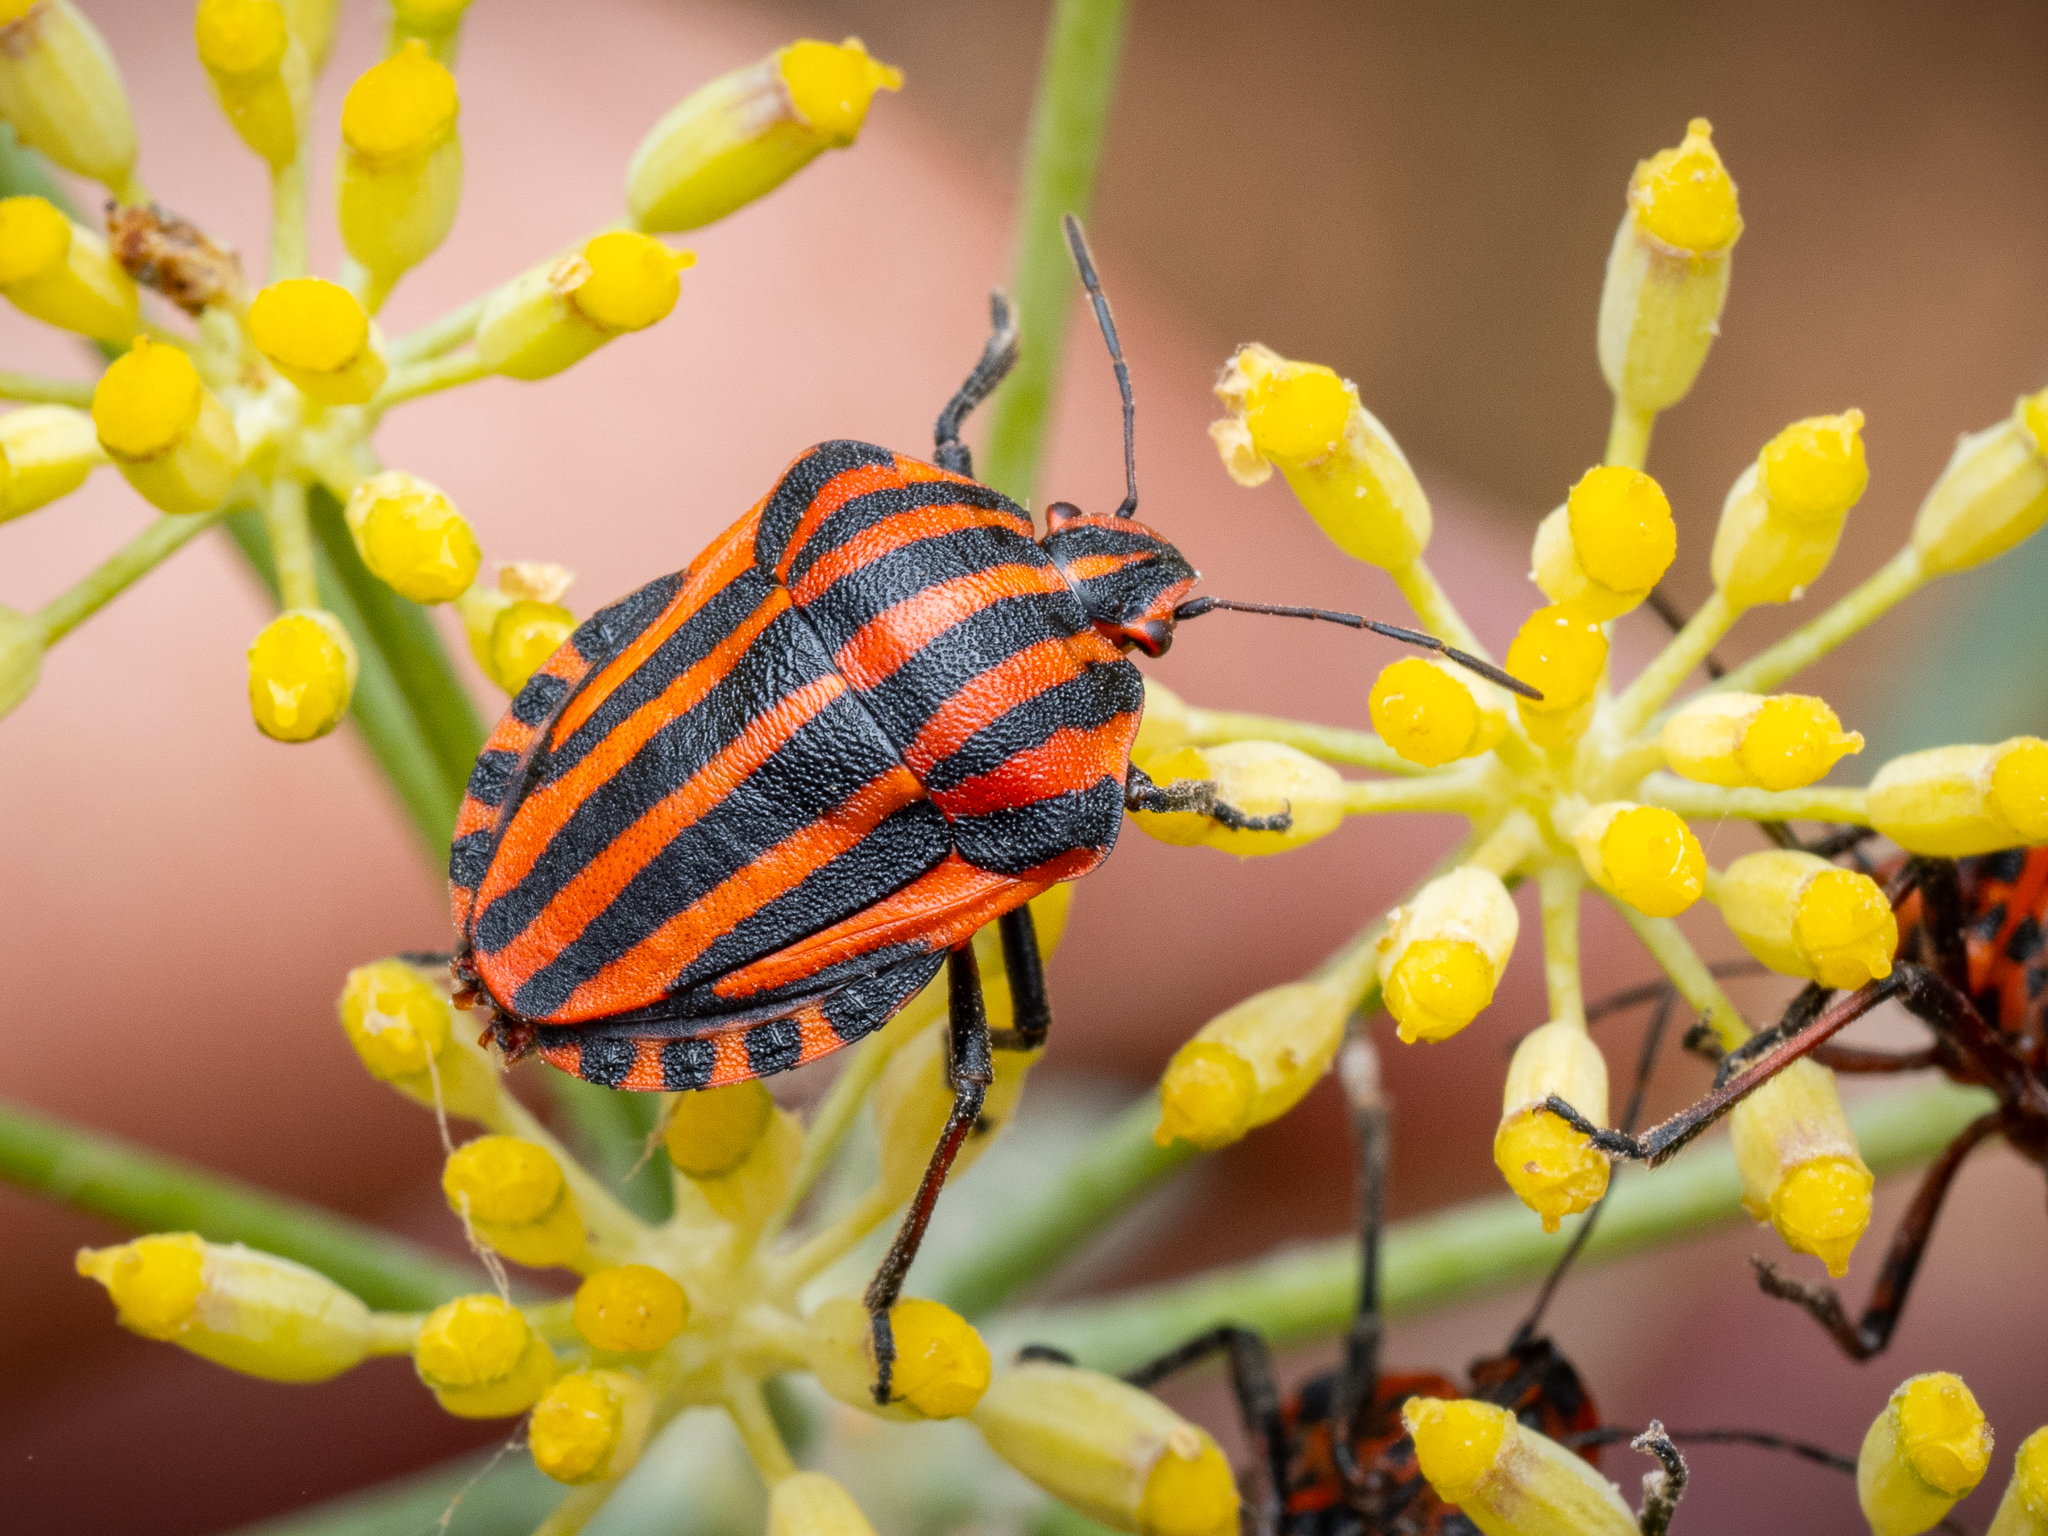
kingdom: Animalia
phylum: Arthropoda
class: Insecta
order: Hemiptera
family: Pentatomidae
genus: Graphosoma
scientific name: Graphosoma italicum
